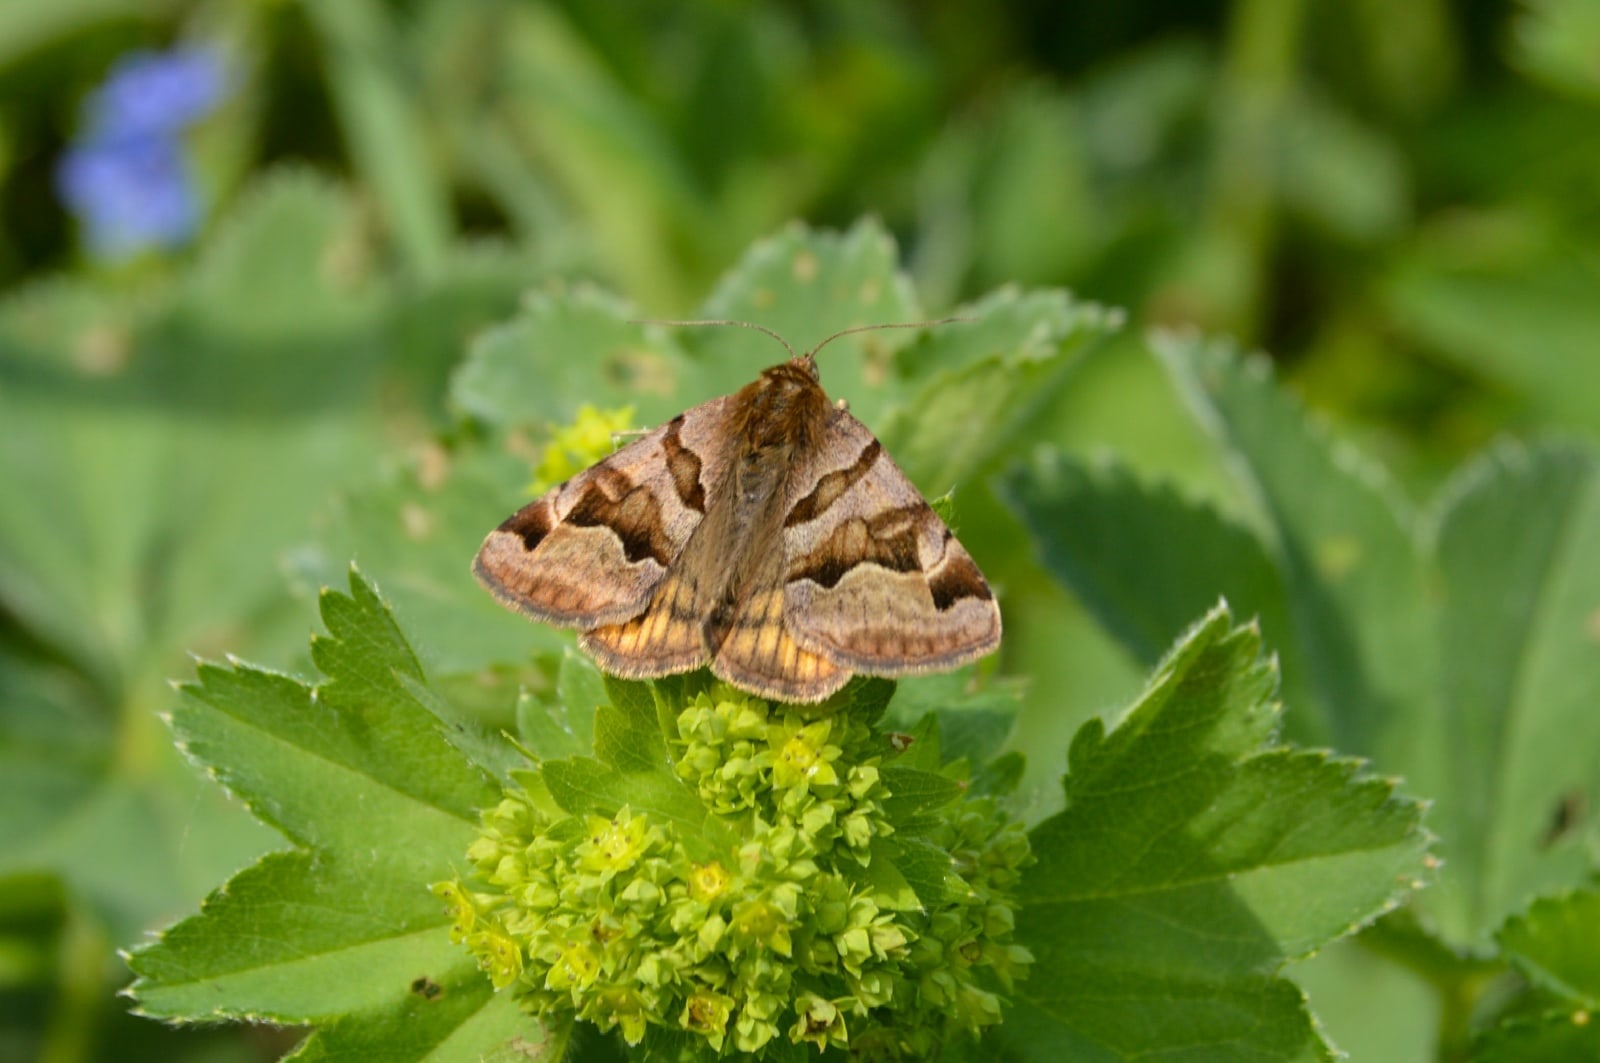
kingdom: Animalia
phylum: Arthropoda
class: Insecta
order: Lepidoptera
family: Erebidae
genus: Euclidia
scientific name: Euclidia glyphica
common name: Burnet companion
